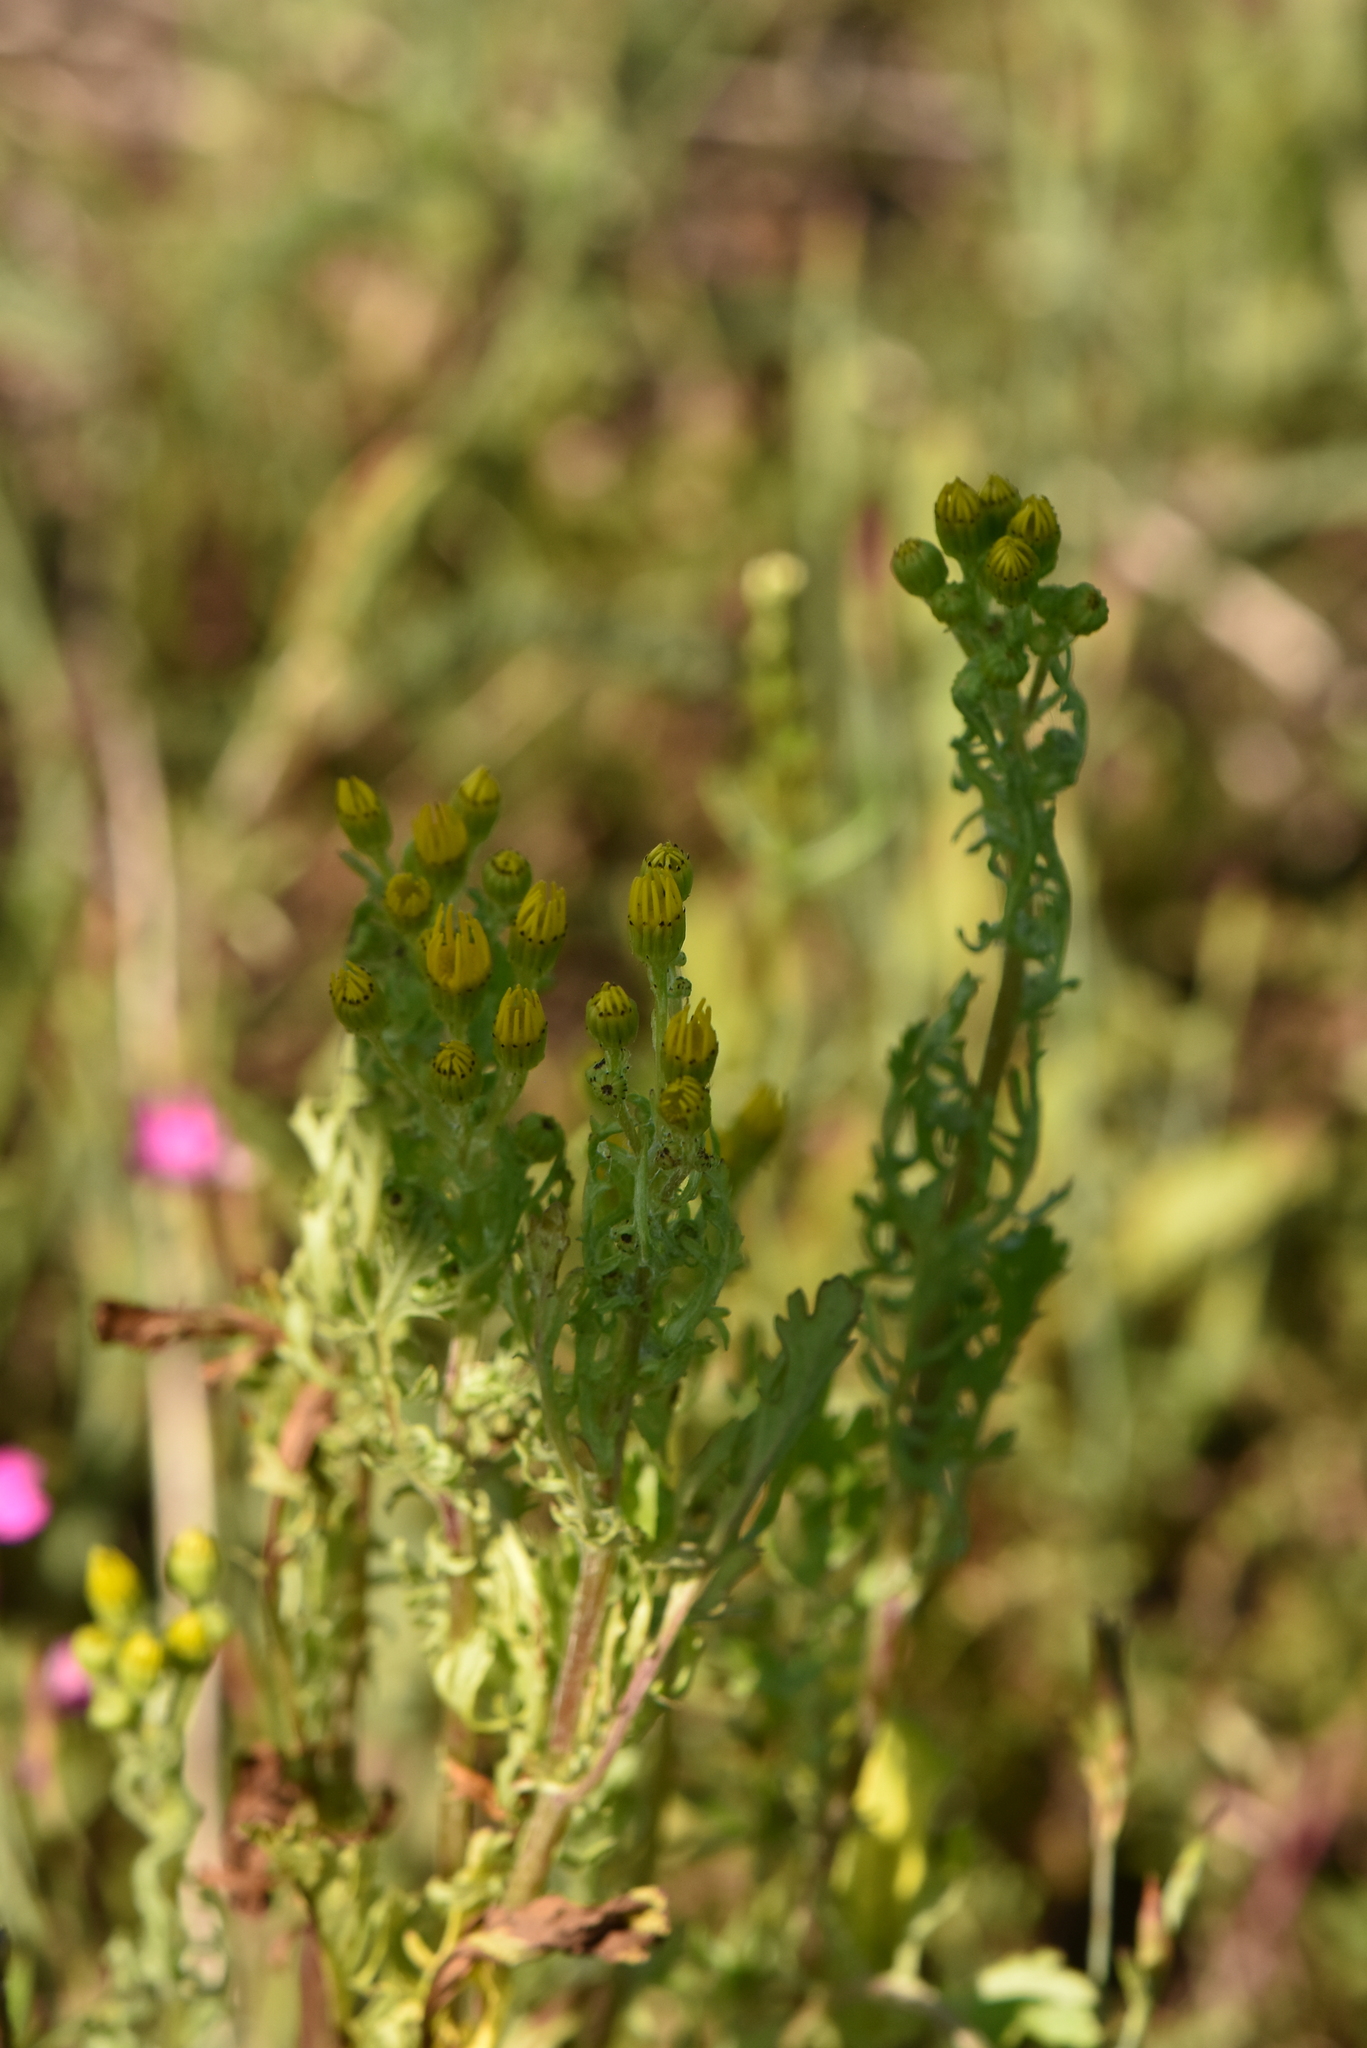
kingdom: Plantae
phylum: Tracheophyta
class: Magnoliopsida
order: Asterales
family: Asteraceae
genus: Jacobaea
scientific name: Jacobaea vulgaris
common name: Stinking willie
